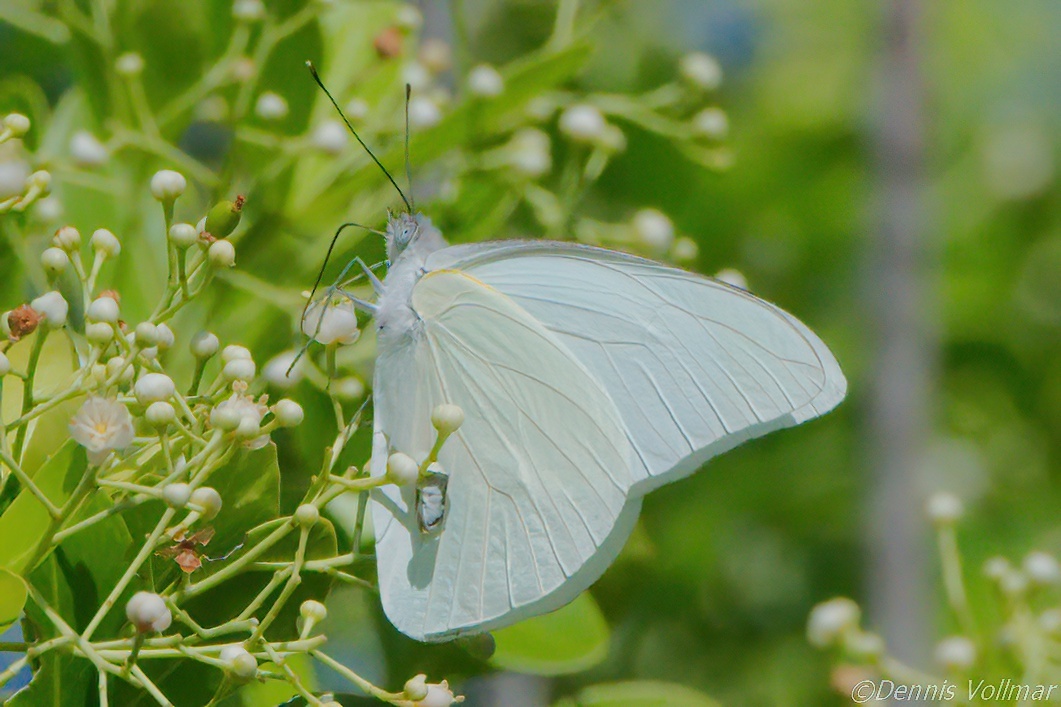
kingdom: Animalia
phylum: Arthropoda
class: Insecta
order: Lepidoptera
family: Pieridae
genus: Glutophrissa
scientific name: Glutophrissa drusilla
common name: Florida white
